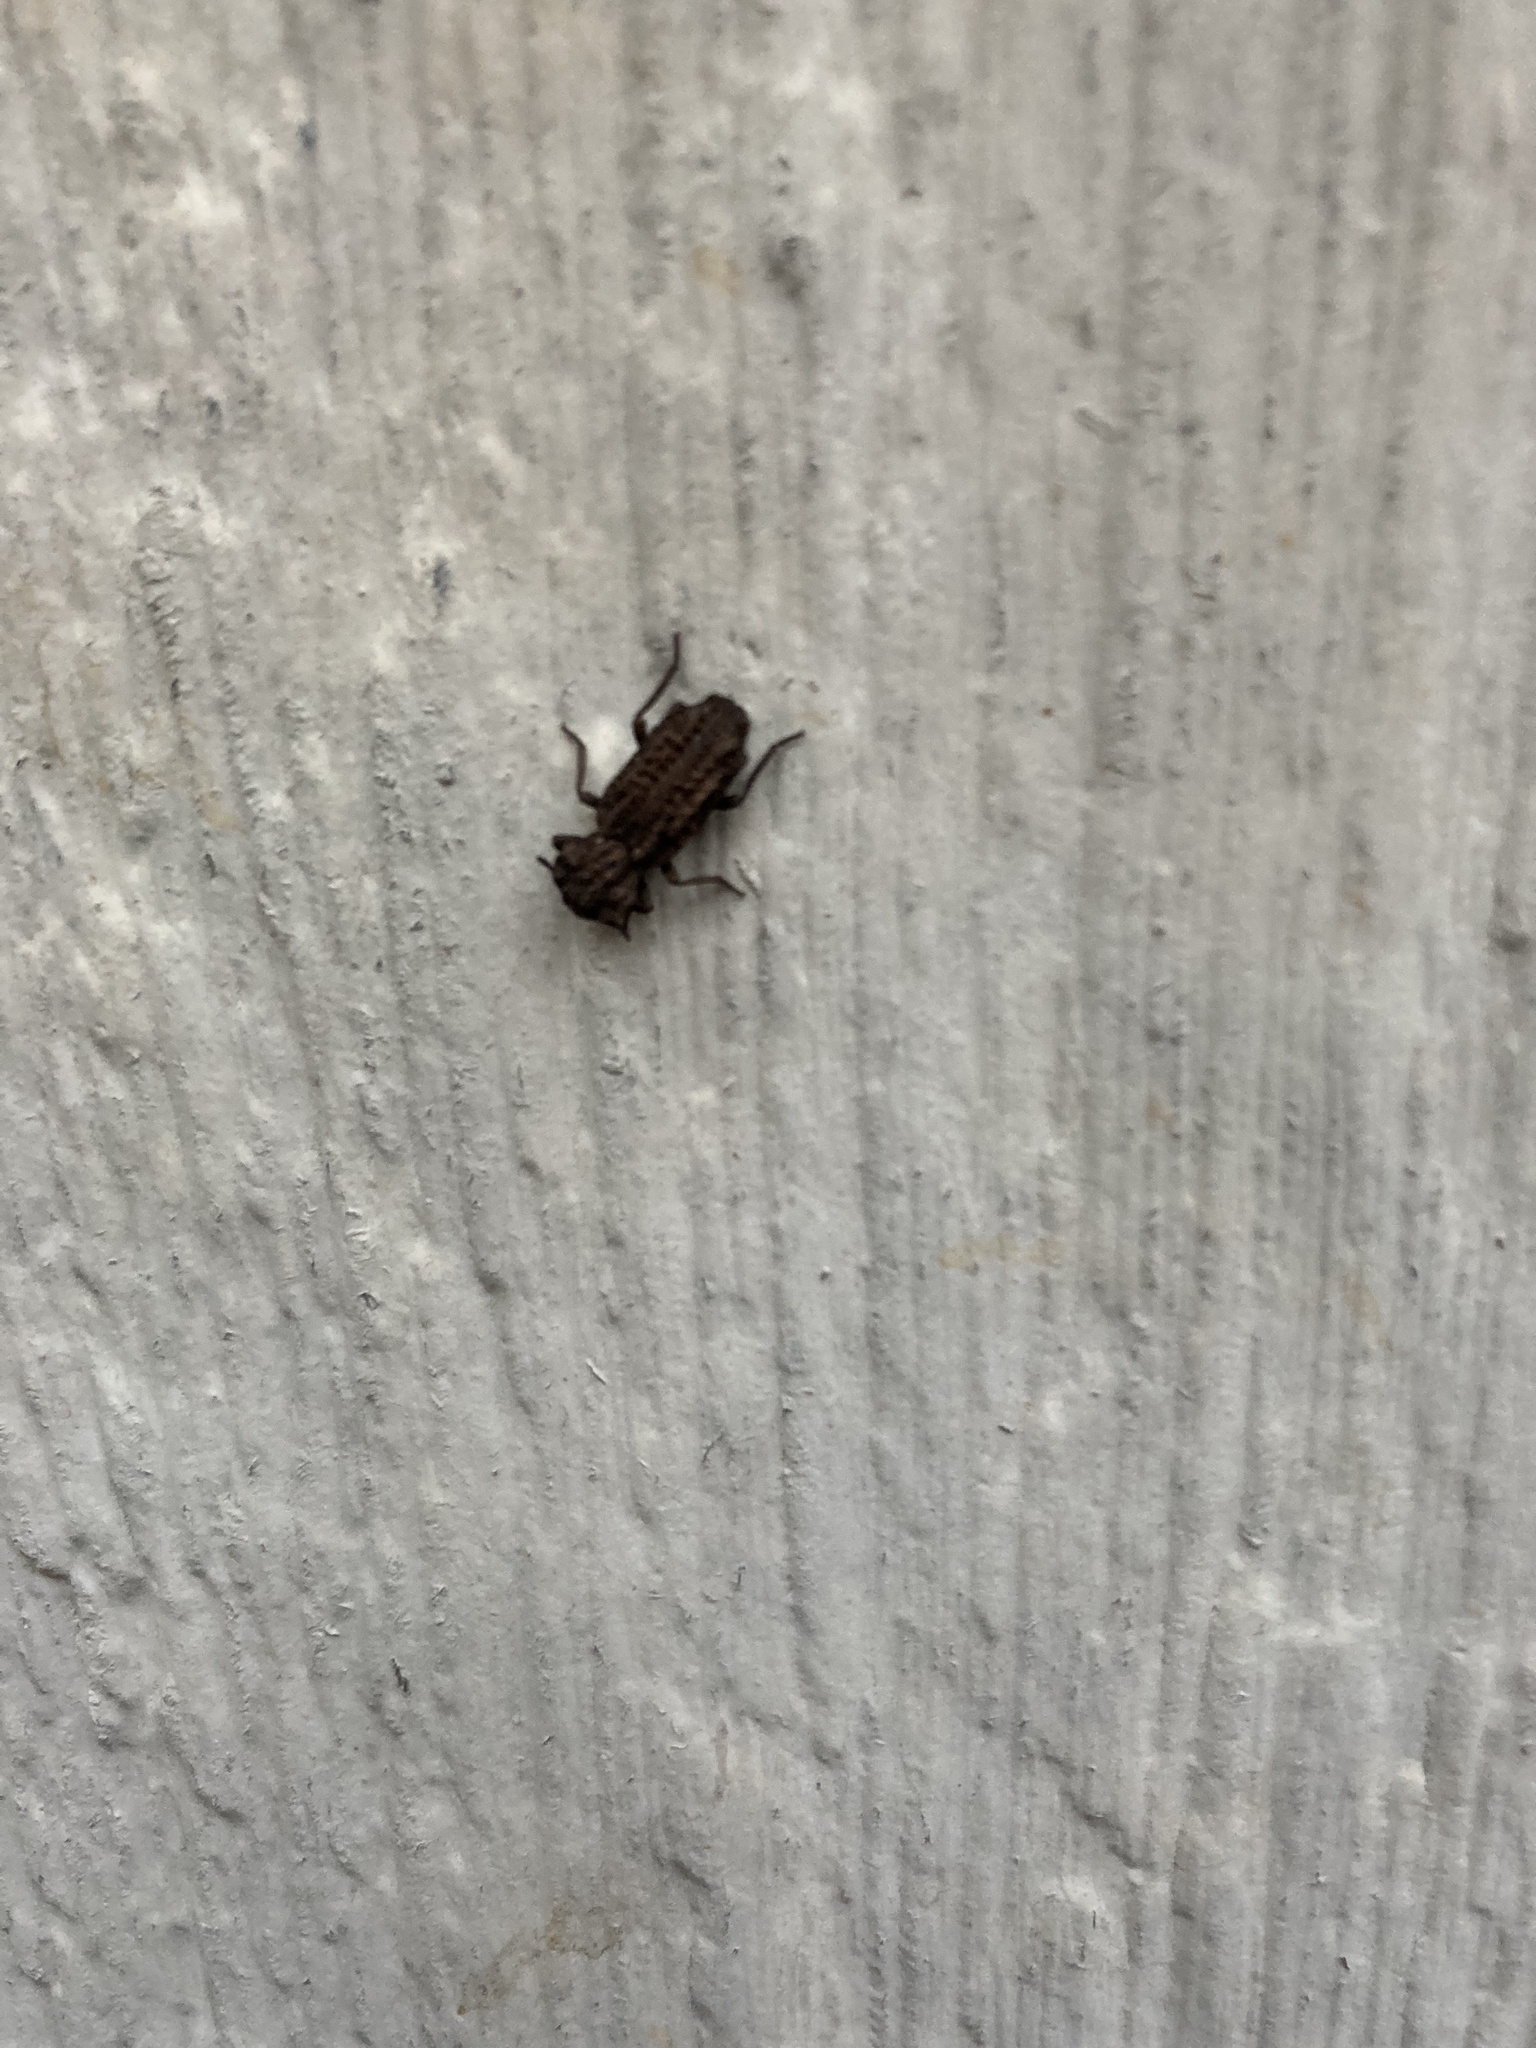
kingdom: Animalia
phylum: Arthropoda
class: Insecta
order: Coleoptera
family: Zopheridae
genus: Phellopsis
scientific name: Phellopsis porcata
